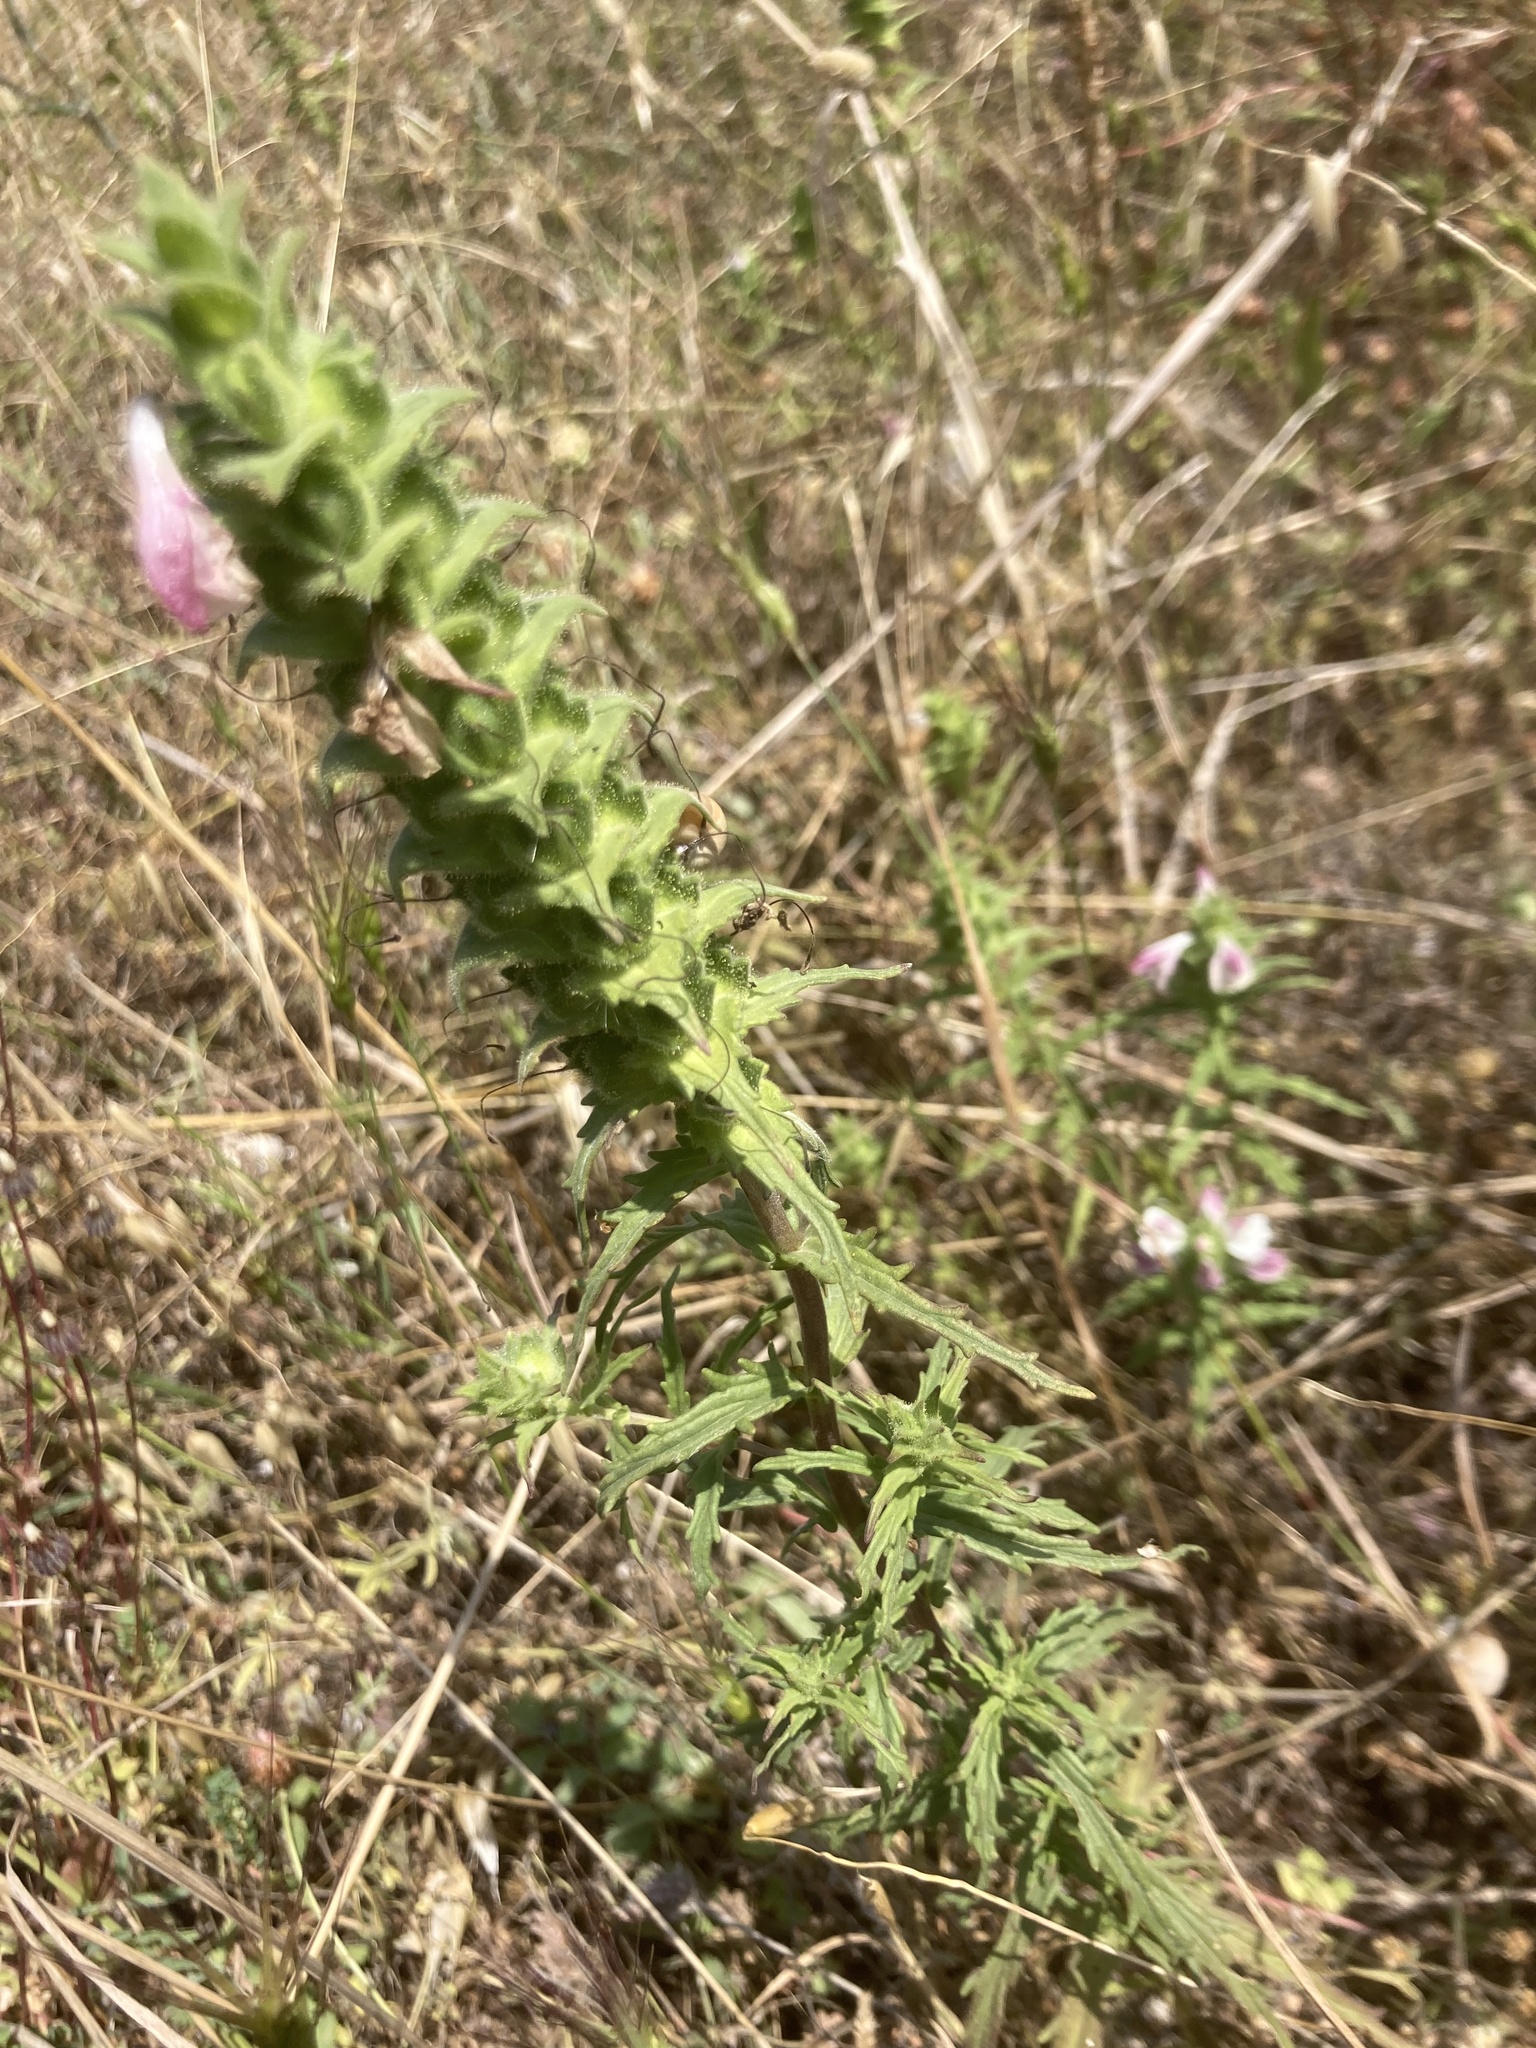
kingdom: Plantae
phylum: Tracheophyta
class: Magnoliopsida
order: Lamiales
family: Orobanchaceae
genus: Bellardia
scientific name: Bellardia trixago
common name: Mediterranean lineseed
